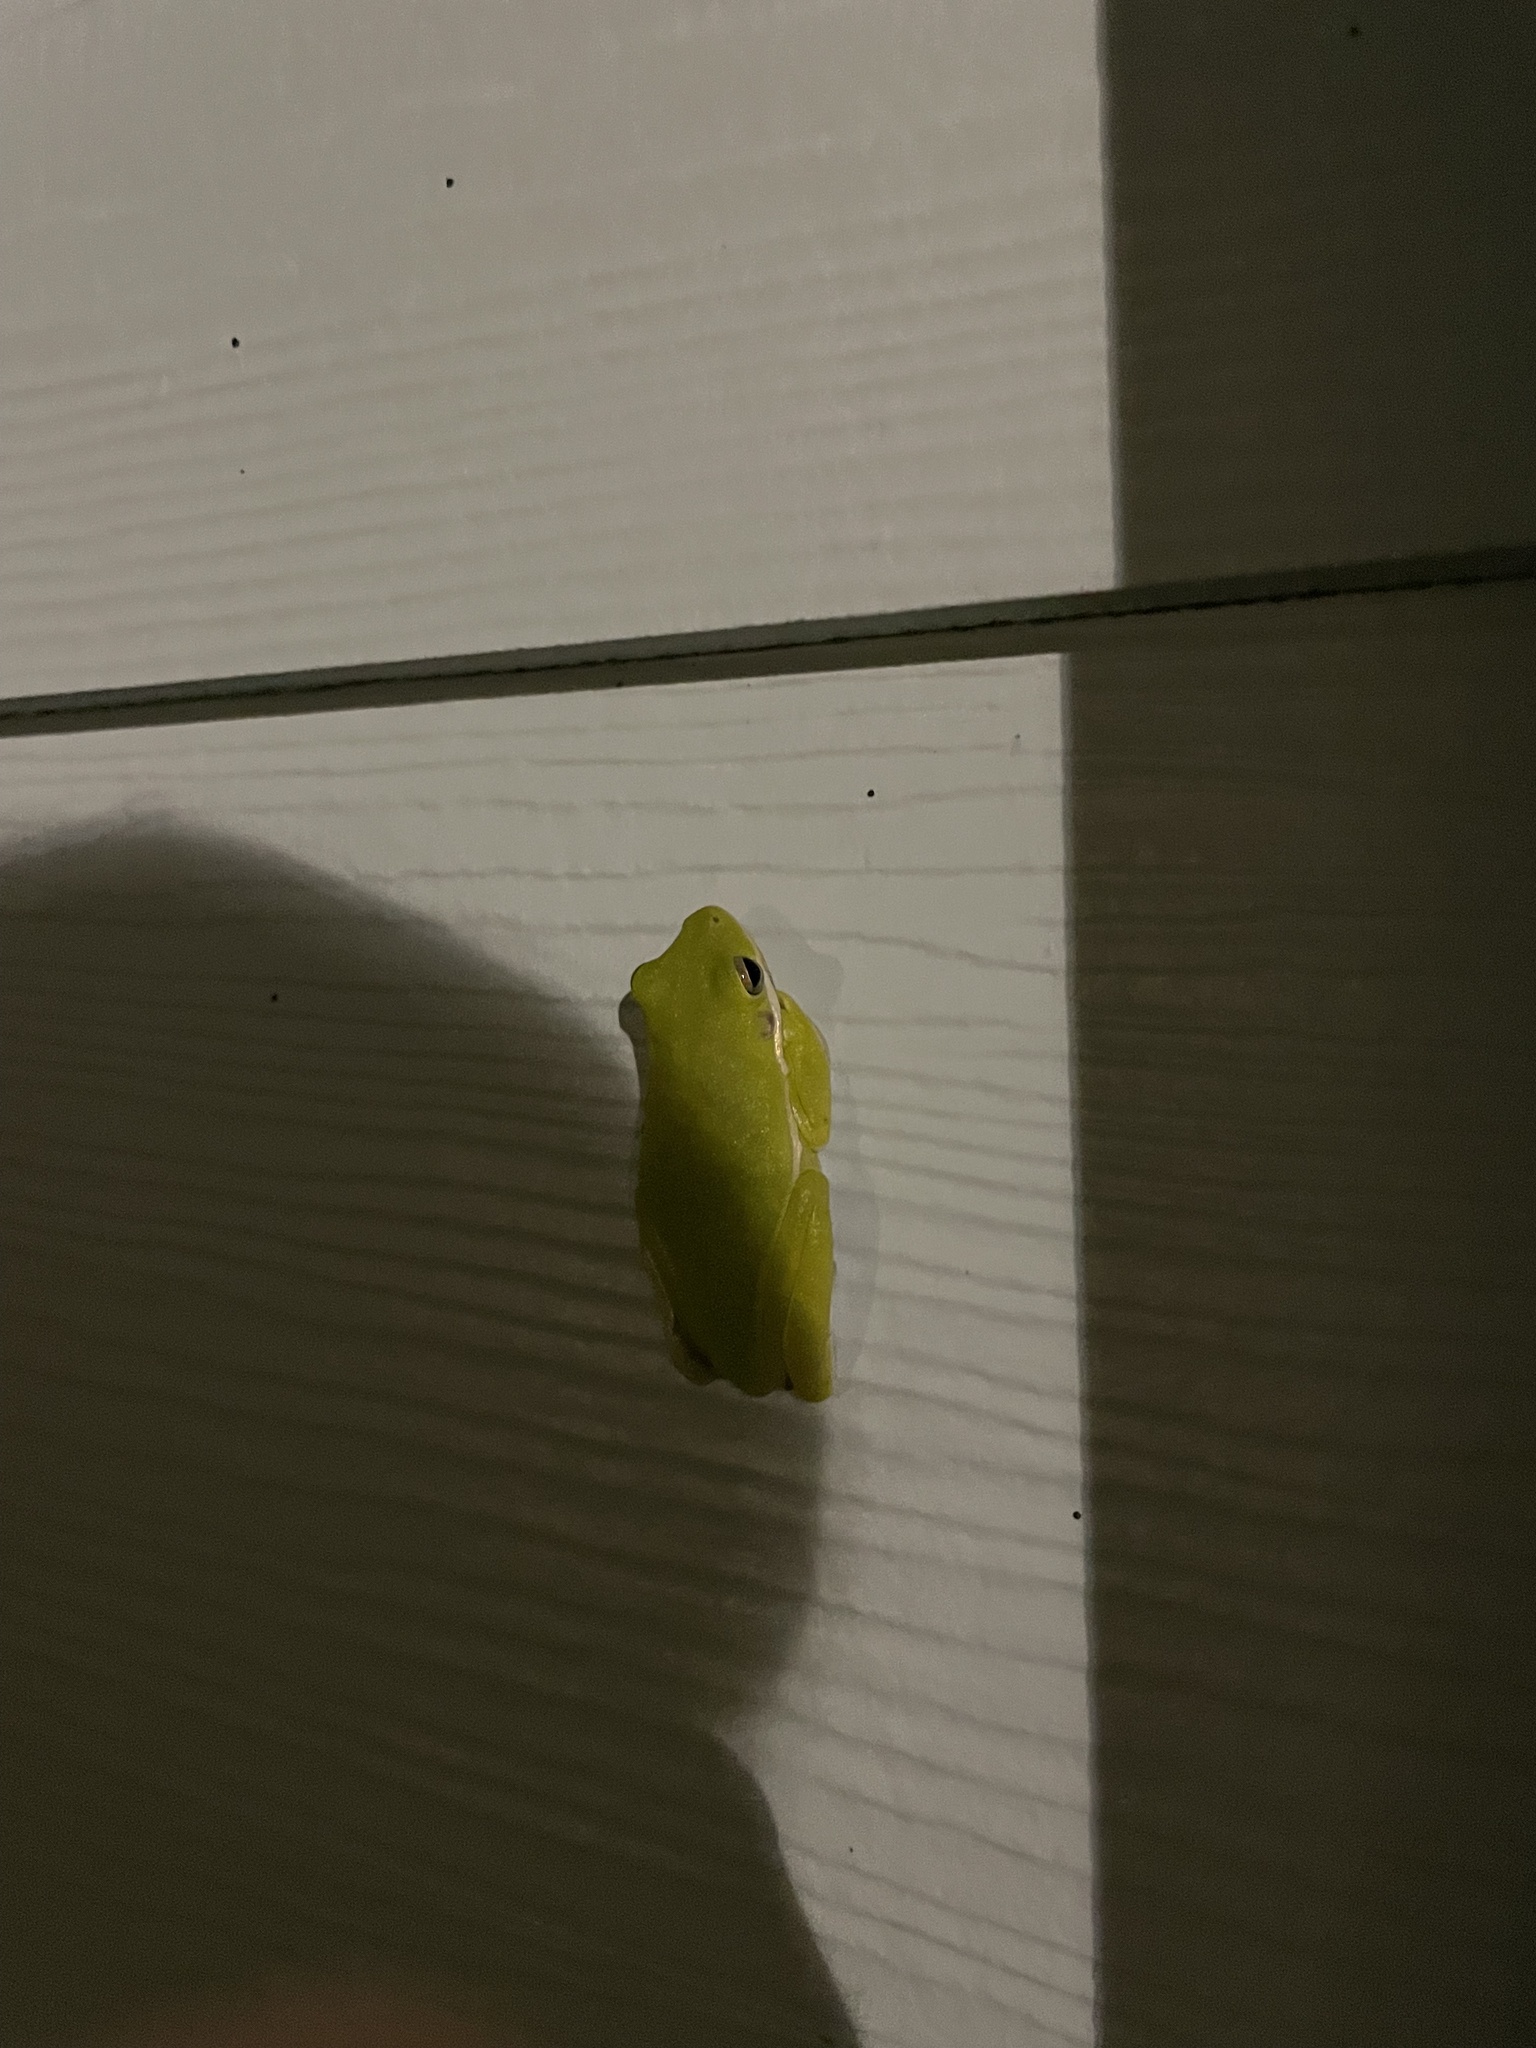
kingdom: Animalia
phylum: Chordata
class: Amphibia
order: Anura
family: Hylidae
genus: Dryophytes
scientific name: Dryophytes cinereus
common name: Green treefrog
